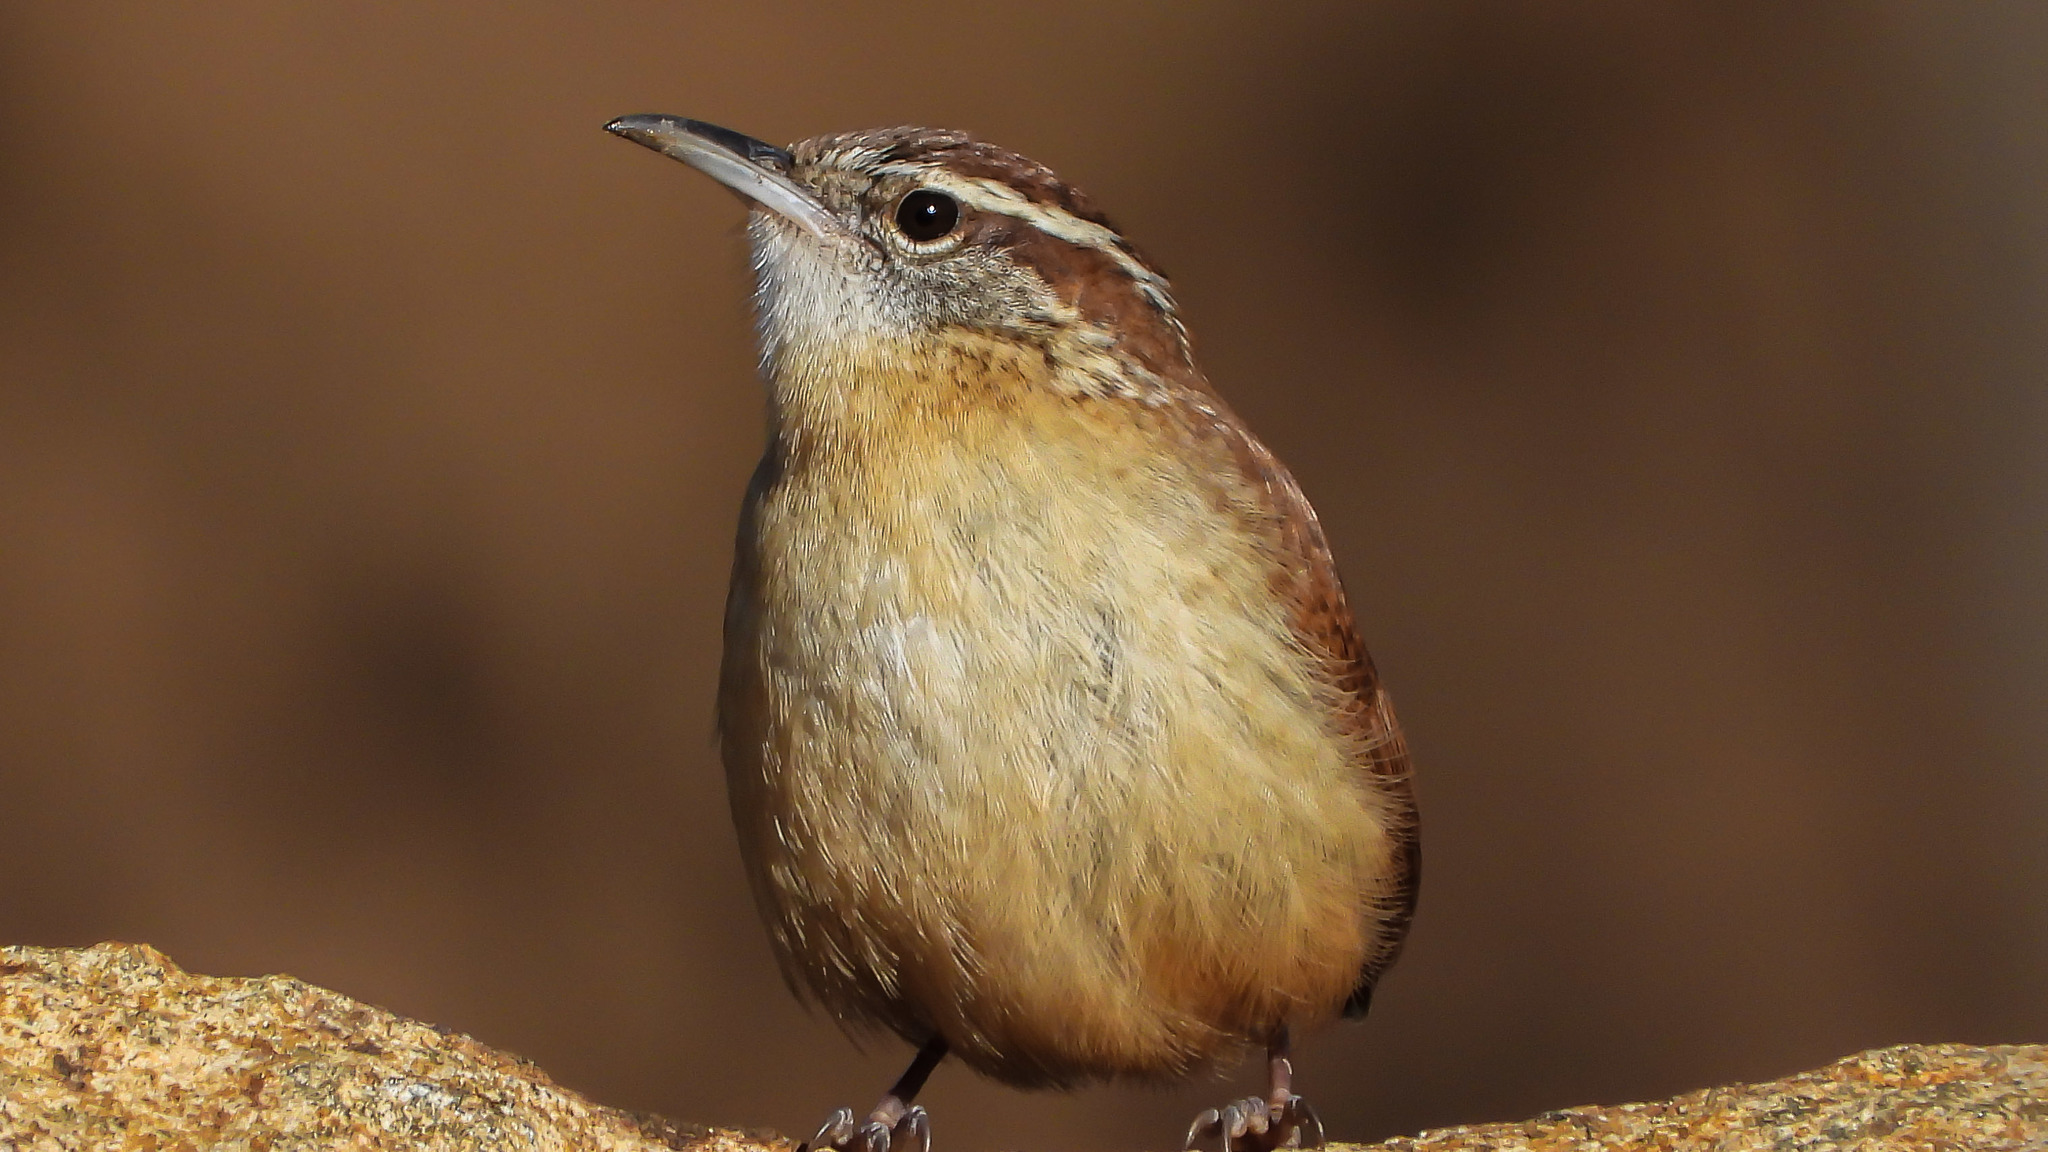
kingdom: Animalia
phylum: Chordata
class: Aves
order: Passeriformes
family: Troglodytidae
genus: Thryothorus
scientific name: Thryothorus ludovicianus
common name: Carolina wren
